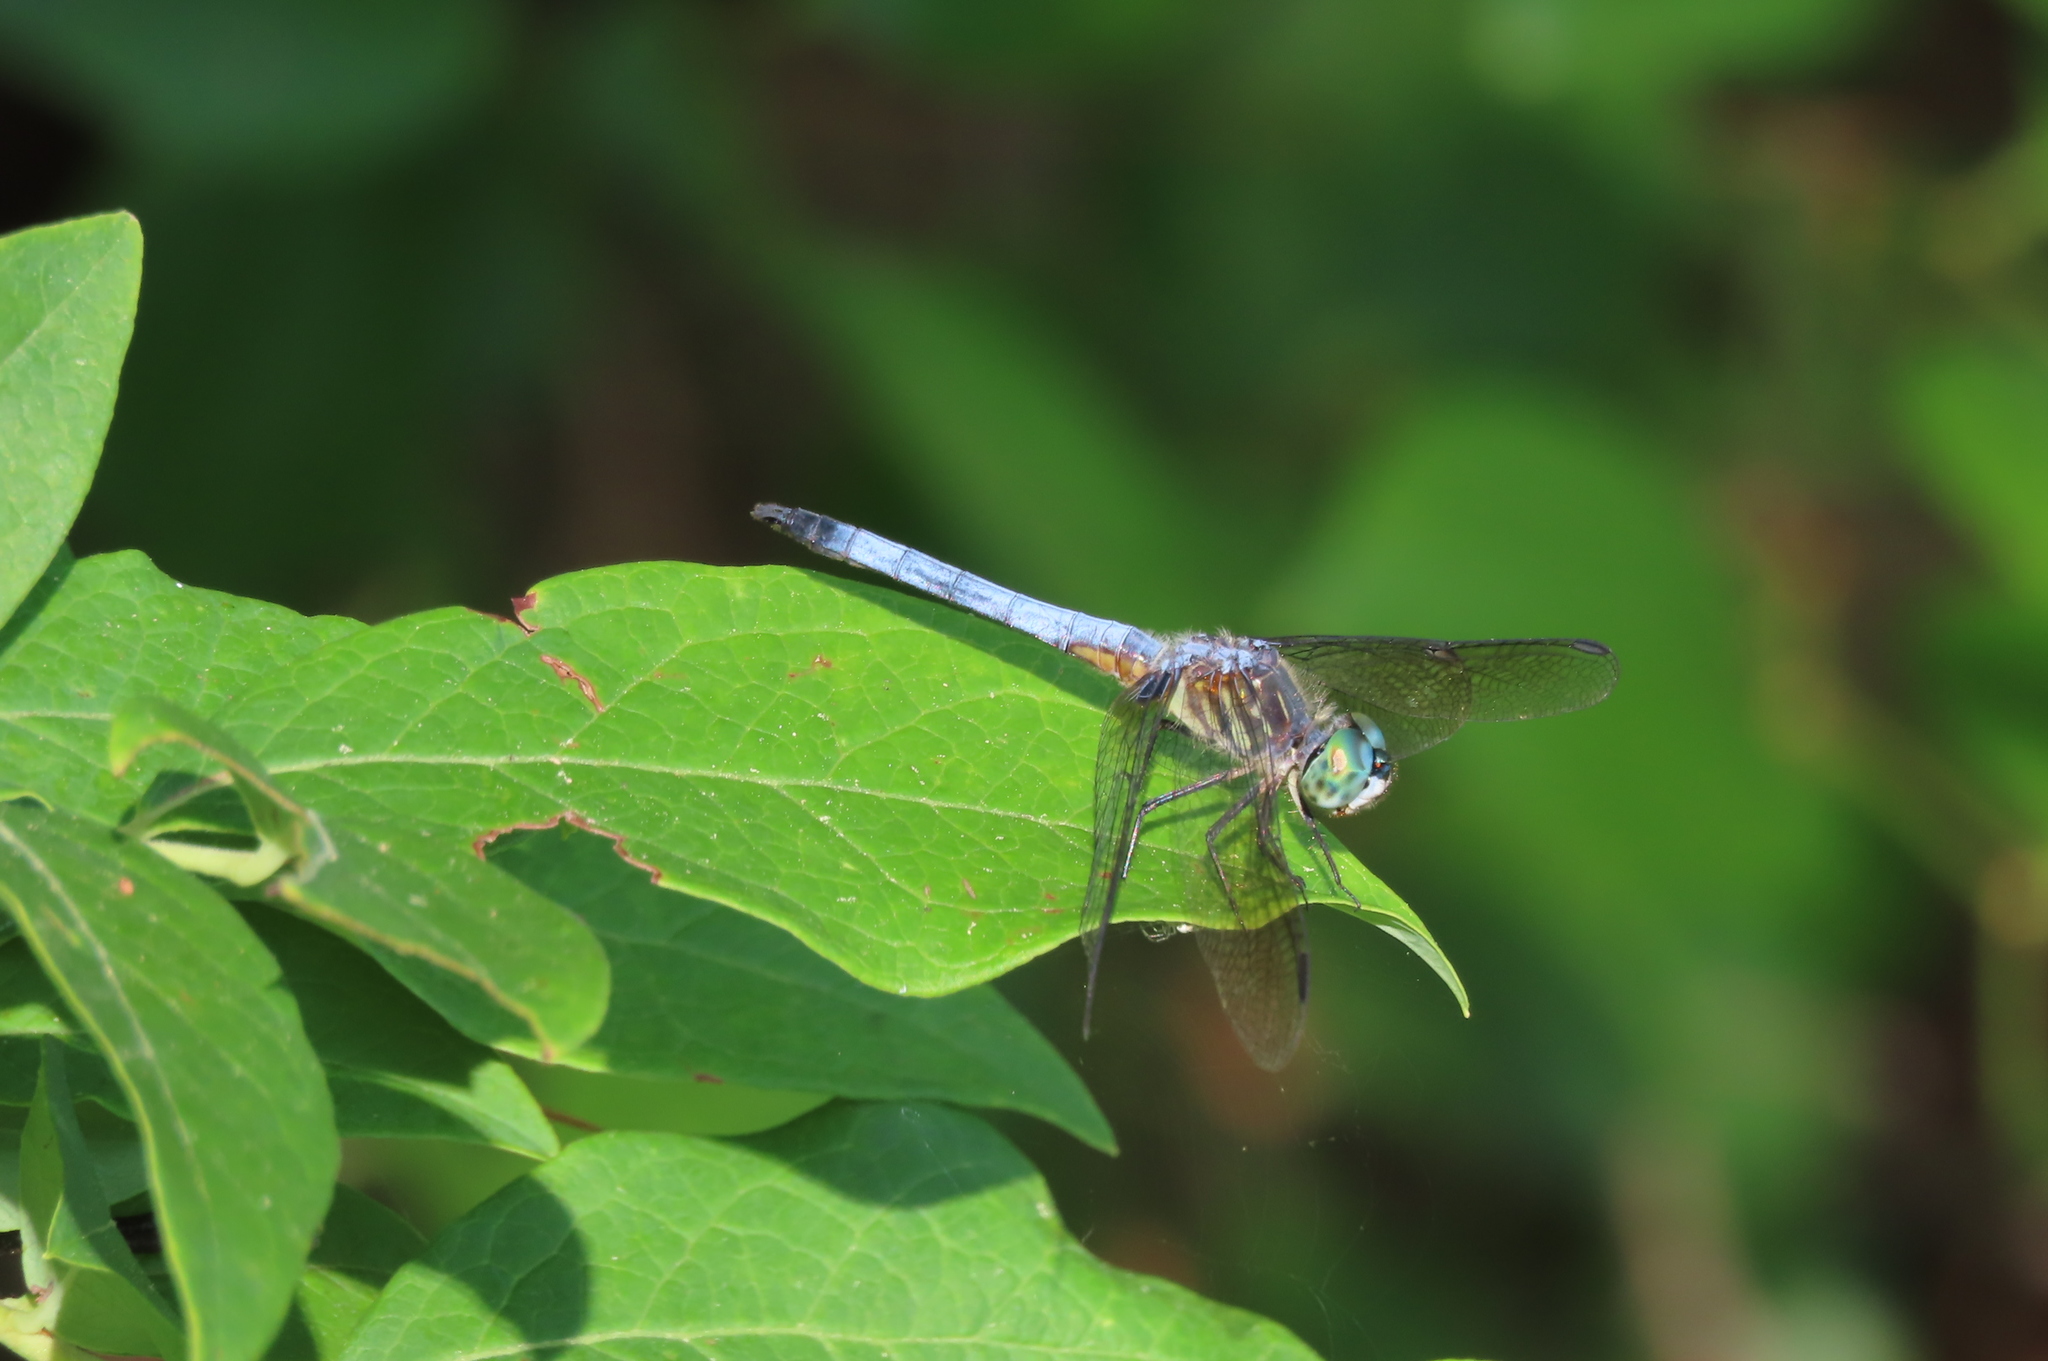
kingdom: Animalia
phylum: Arthropoda
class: Insecta
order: Odonata
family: Libellulidae
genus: Pachydiplax
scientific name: Pachydiplax longipennis
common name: Blue dasher
